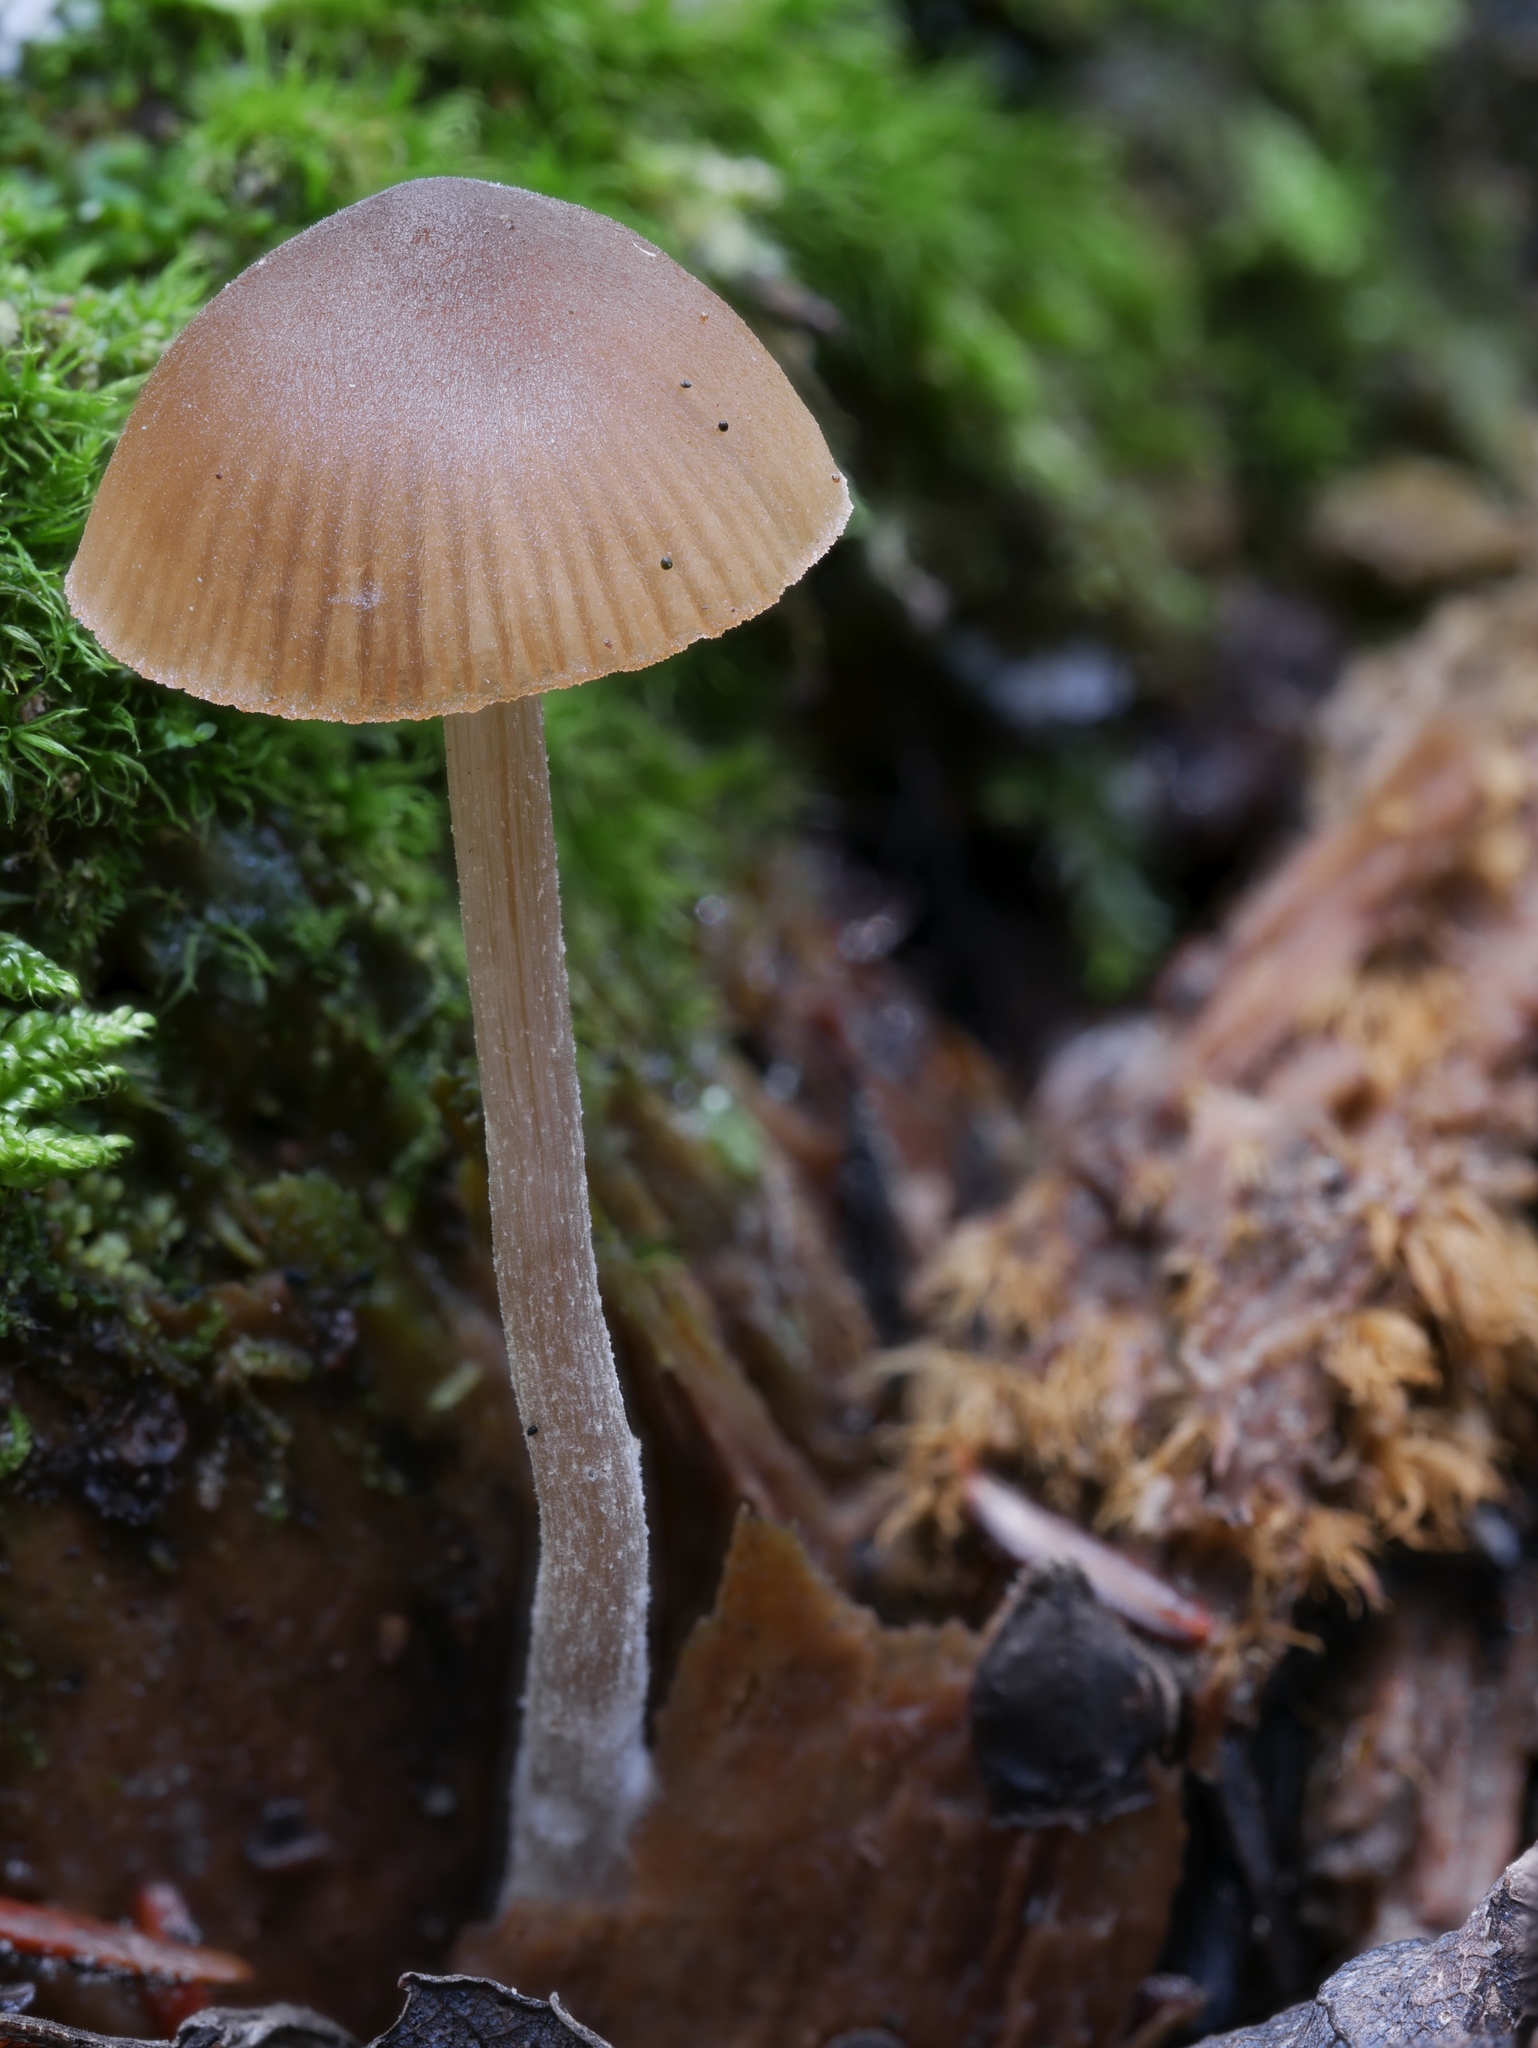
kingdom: Fungi
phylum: Basidiomycota
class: Agaricomycetes
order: Agaricales
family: Lyophyllaceae
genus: Sagaranella
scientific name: Sagaranella tylicolor
